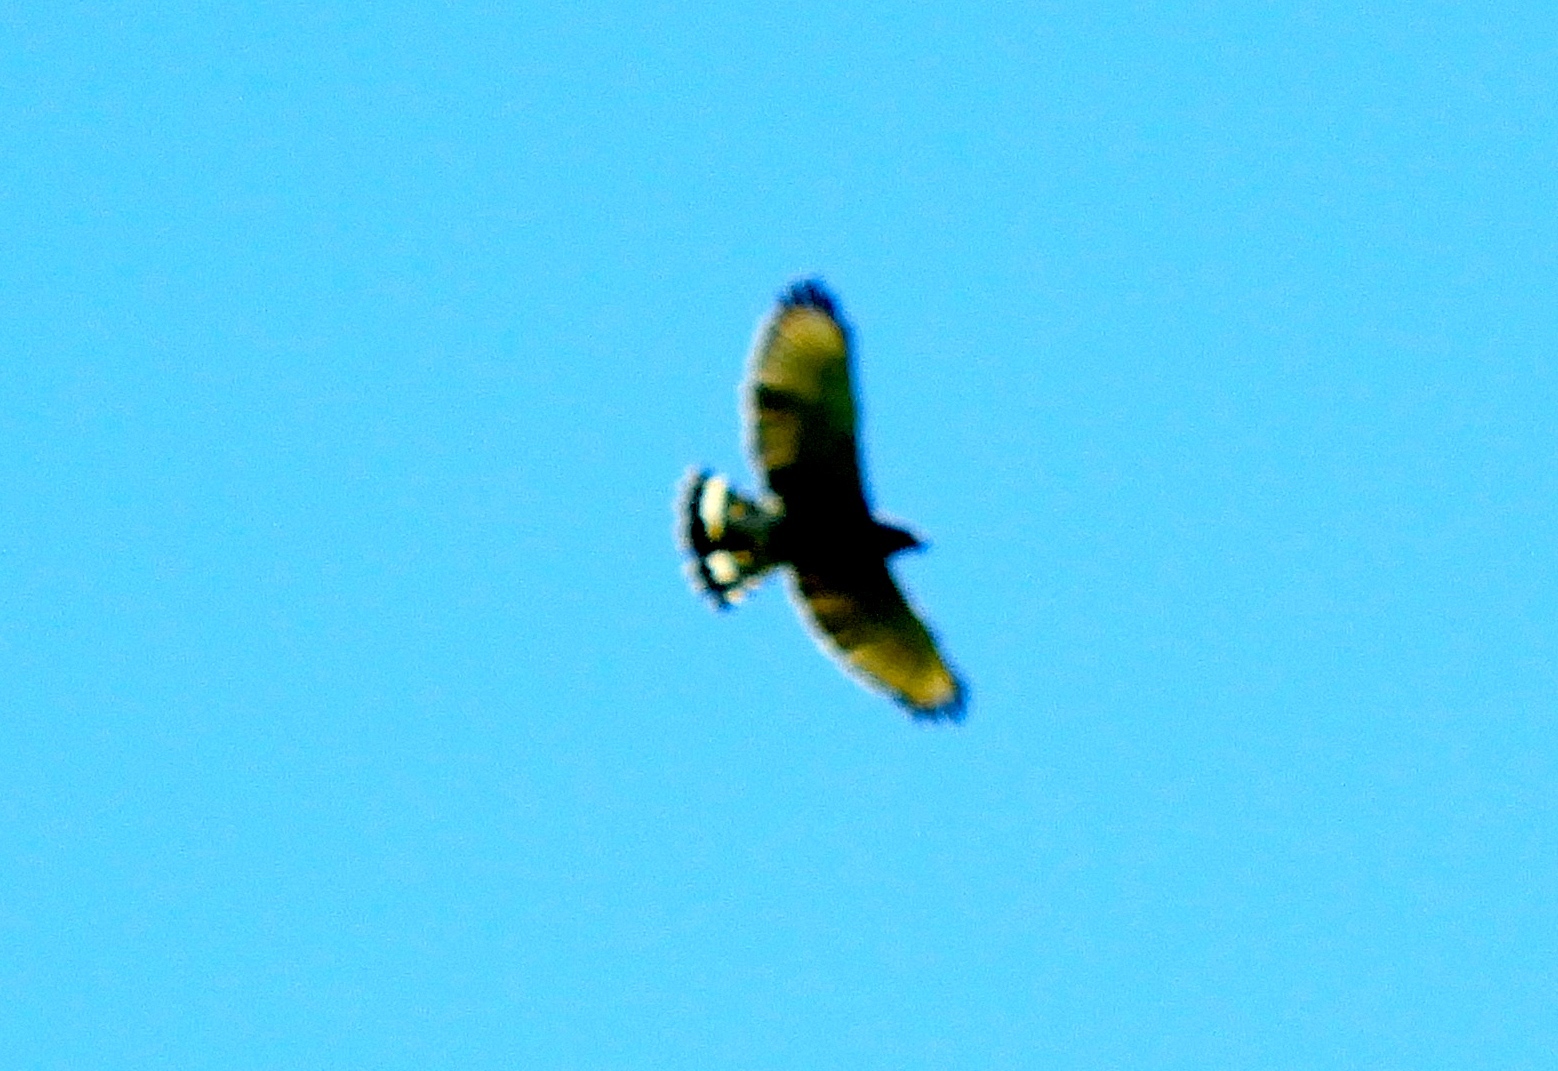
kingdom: Animalia
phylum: Chordata
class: Aves
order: Accipitriformes
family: Accipitridae
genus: Buteo
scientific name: Buteo nitidus
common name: Grey-lined hawk
